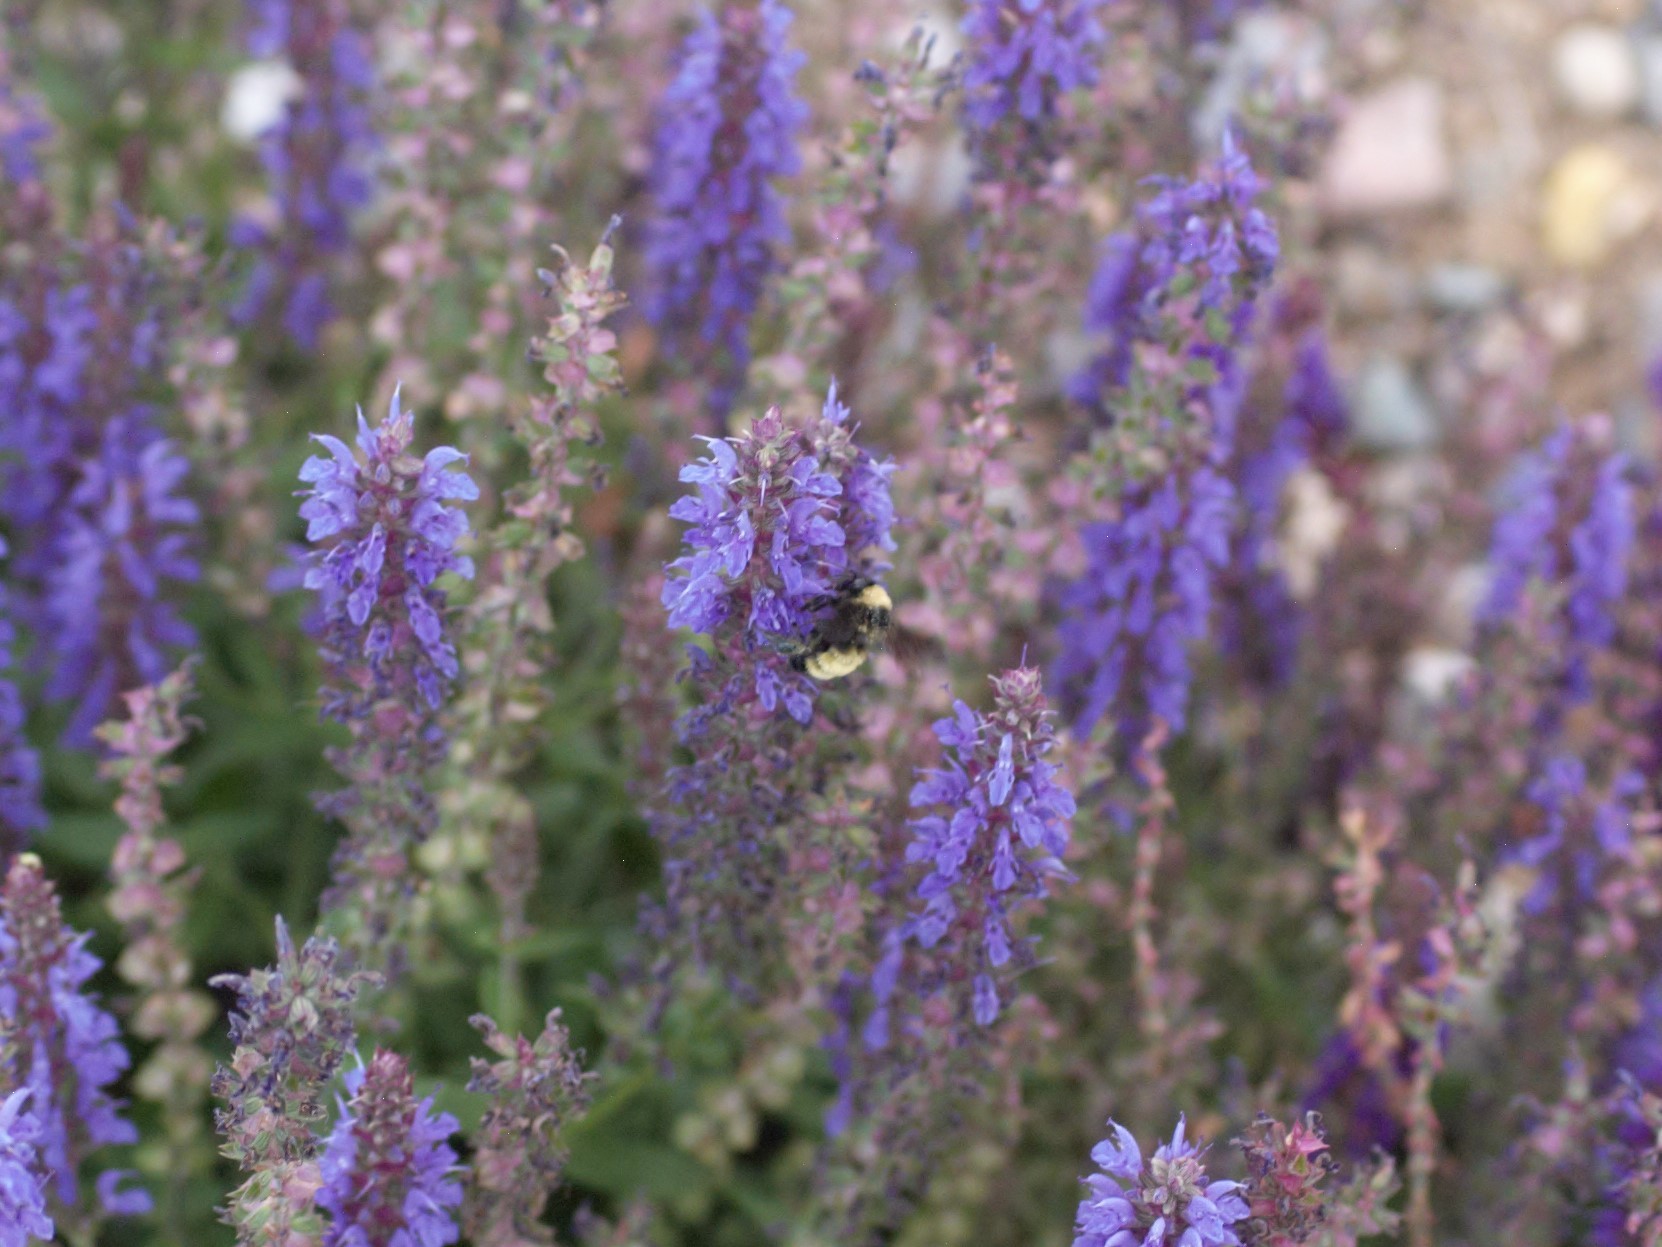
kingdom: Animalia
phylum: Arthropoda
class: Insecta
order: Hymenoptera
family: Apidae
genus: Bombus
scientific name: Bombus pensylvanicus
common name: Bumble bee
